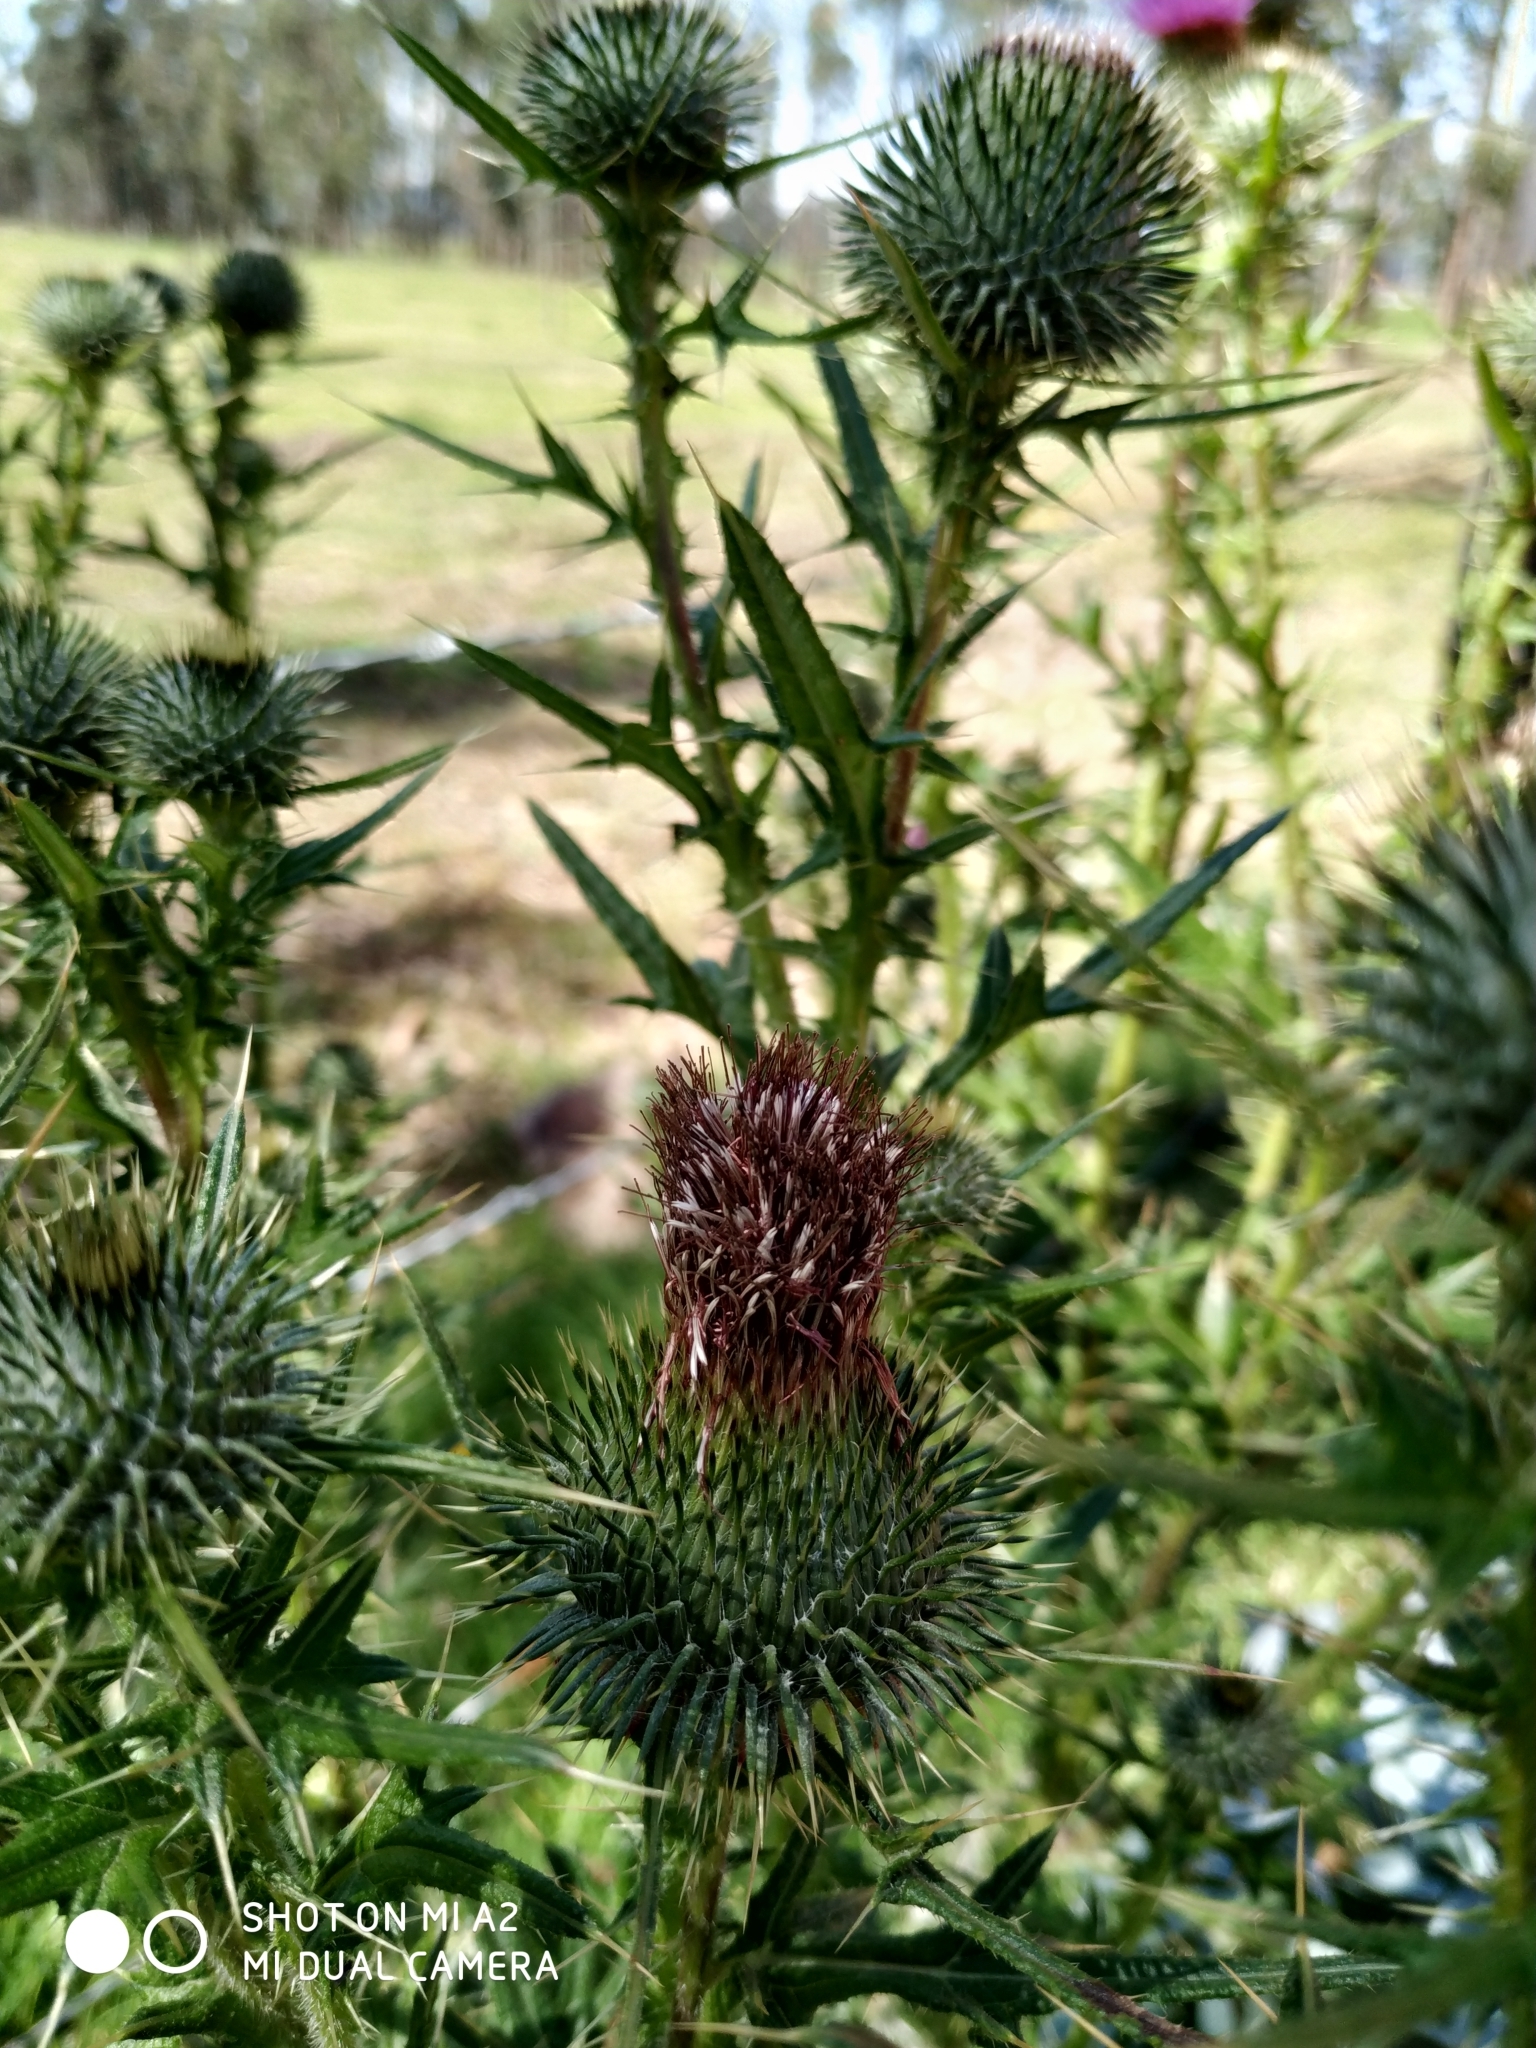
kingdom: Plantae
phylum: Tracheophyta
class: Magnoliopsida
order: Asterales
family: Asteraceae
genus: Cirsium
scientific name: Cirsium vulgare
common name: Bull thistle
